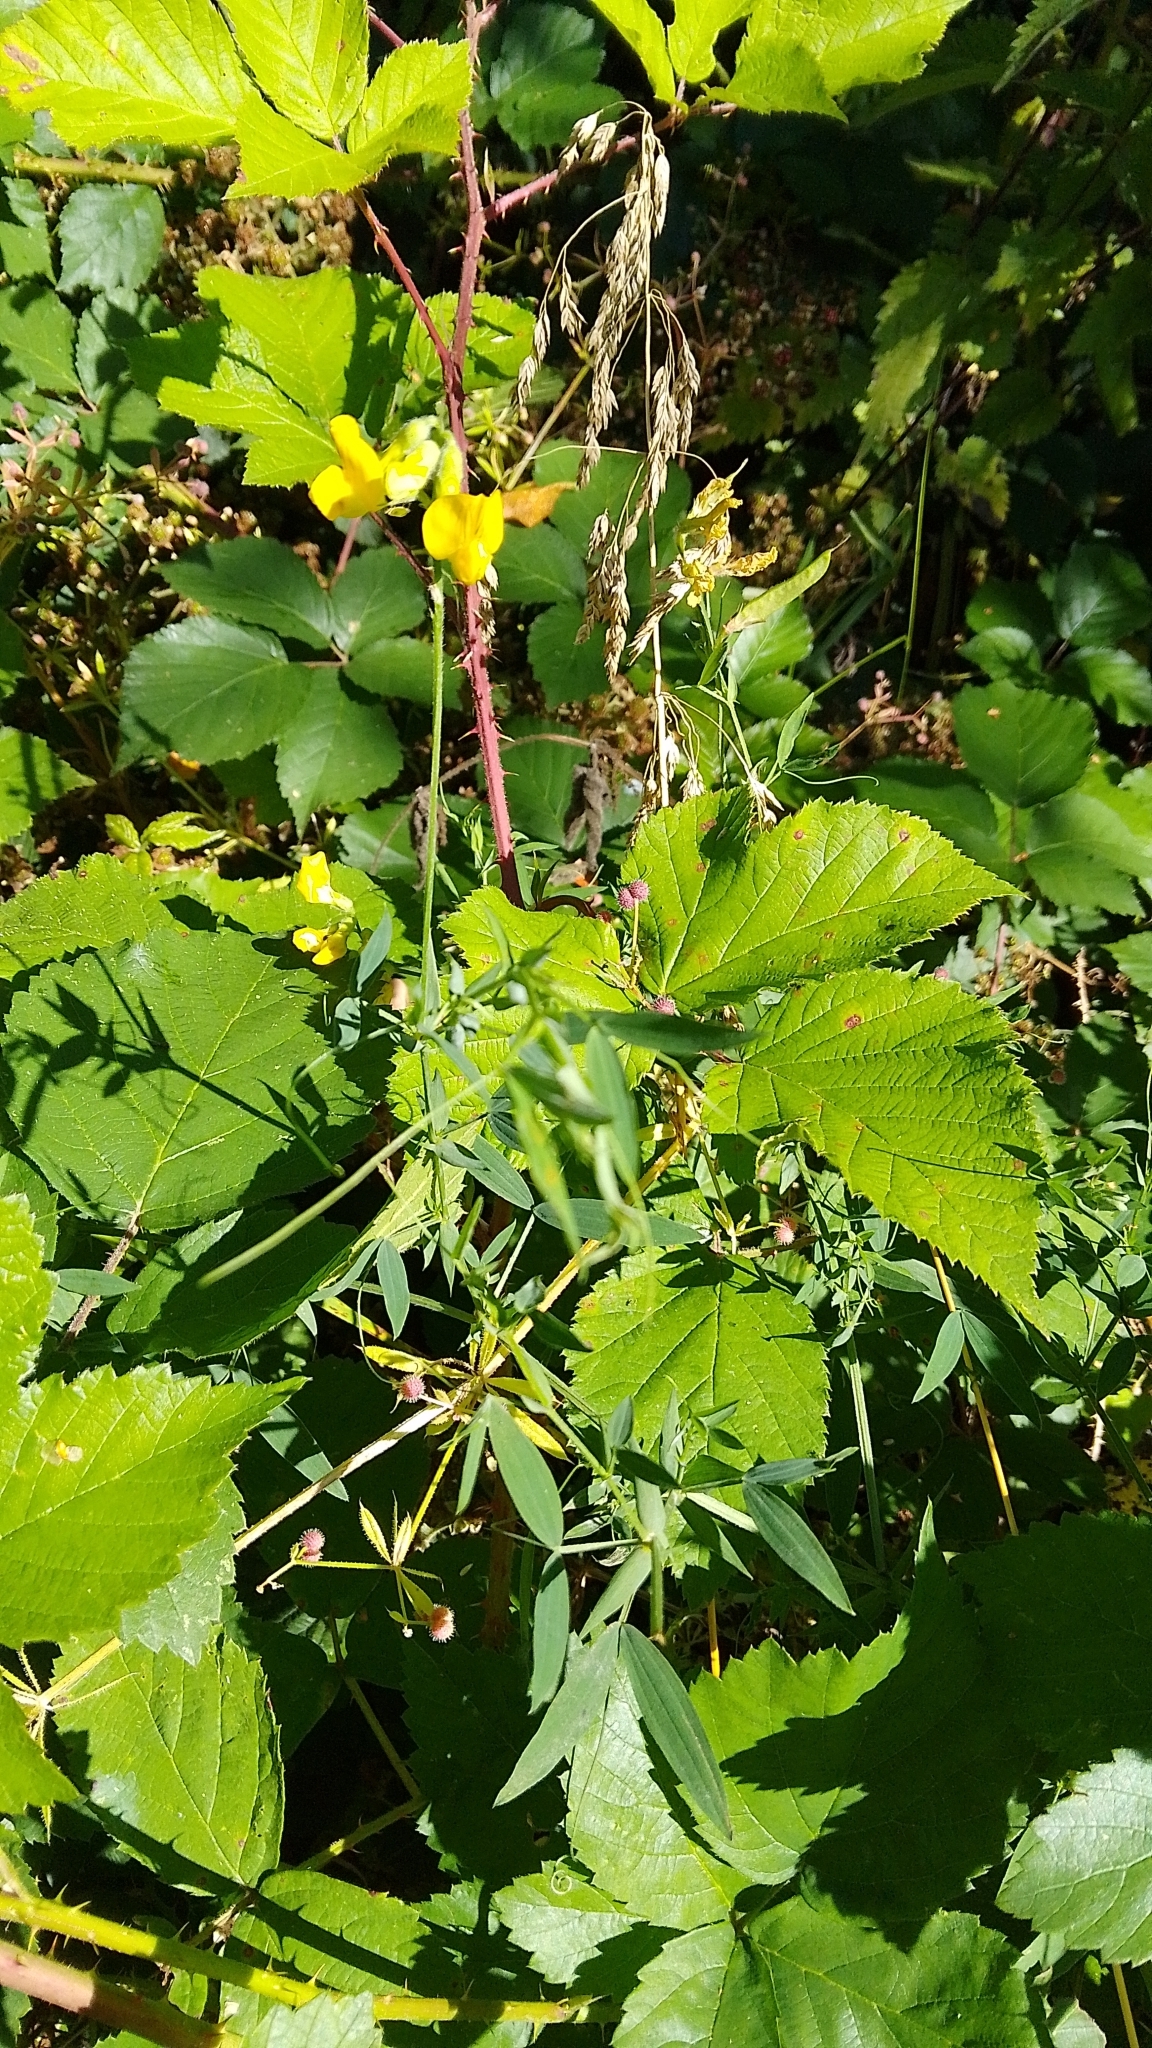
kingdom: Plantae
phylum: Tracheophyta
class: Magnoliopsida
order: Fabales
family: Fabaceae
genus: Lathyrus
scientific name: Lathyrus pratensis
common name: Meadow vetchling
